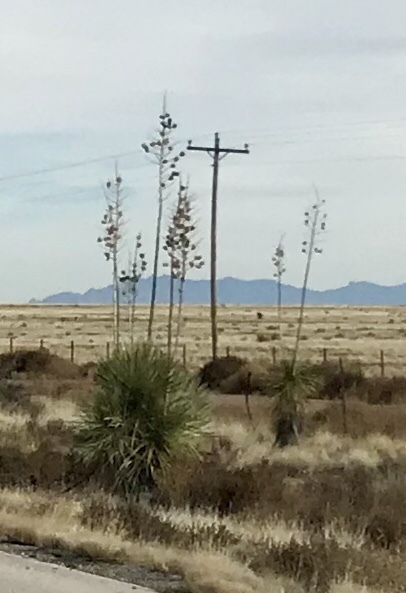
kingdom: Plantae
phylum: Tracheophyta
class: Liliopsida
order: Asparagales
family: Asparagaceae
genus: Yucca
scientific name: Yucca elata
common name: Palmella
